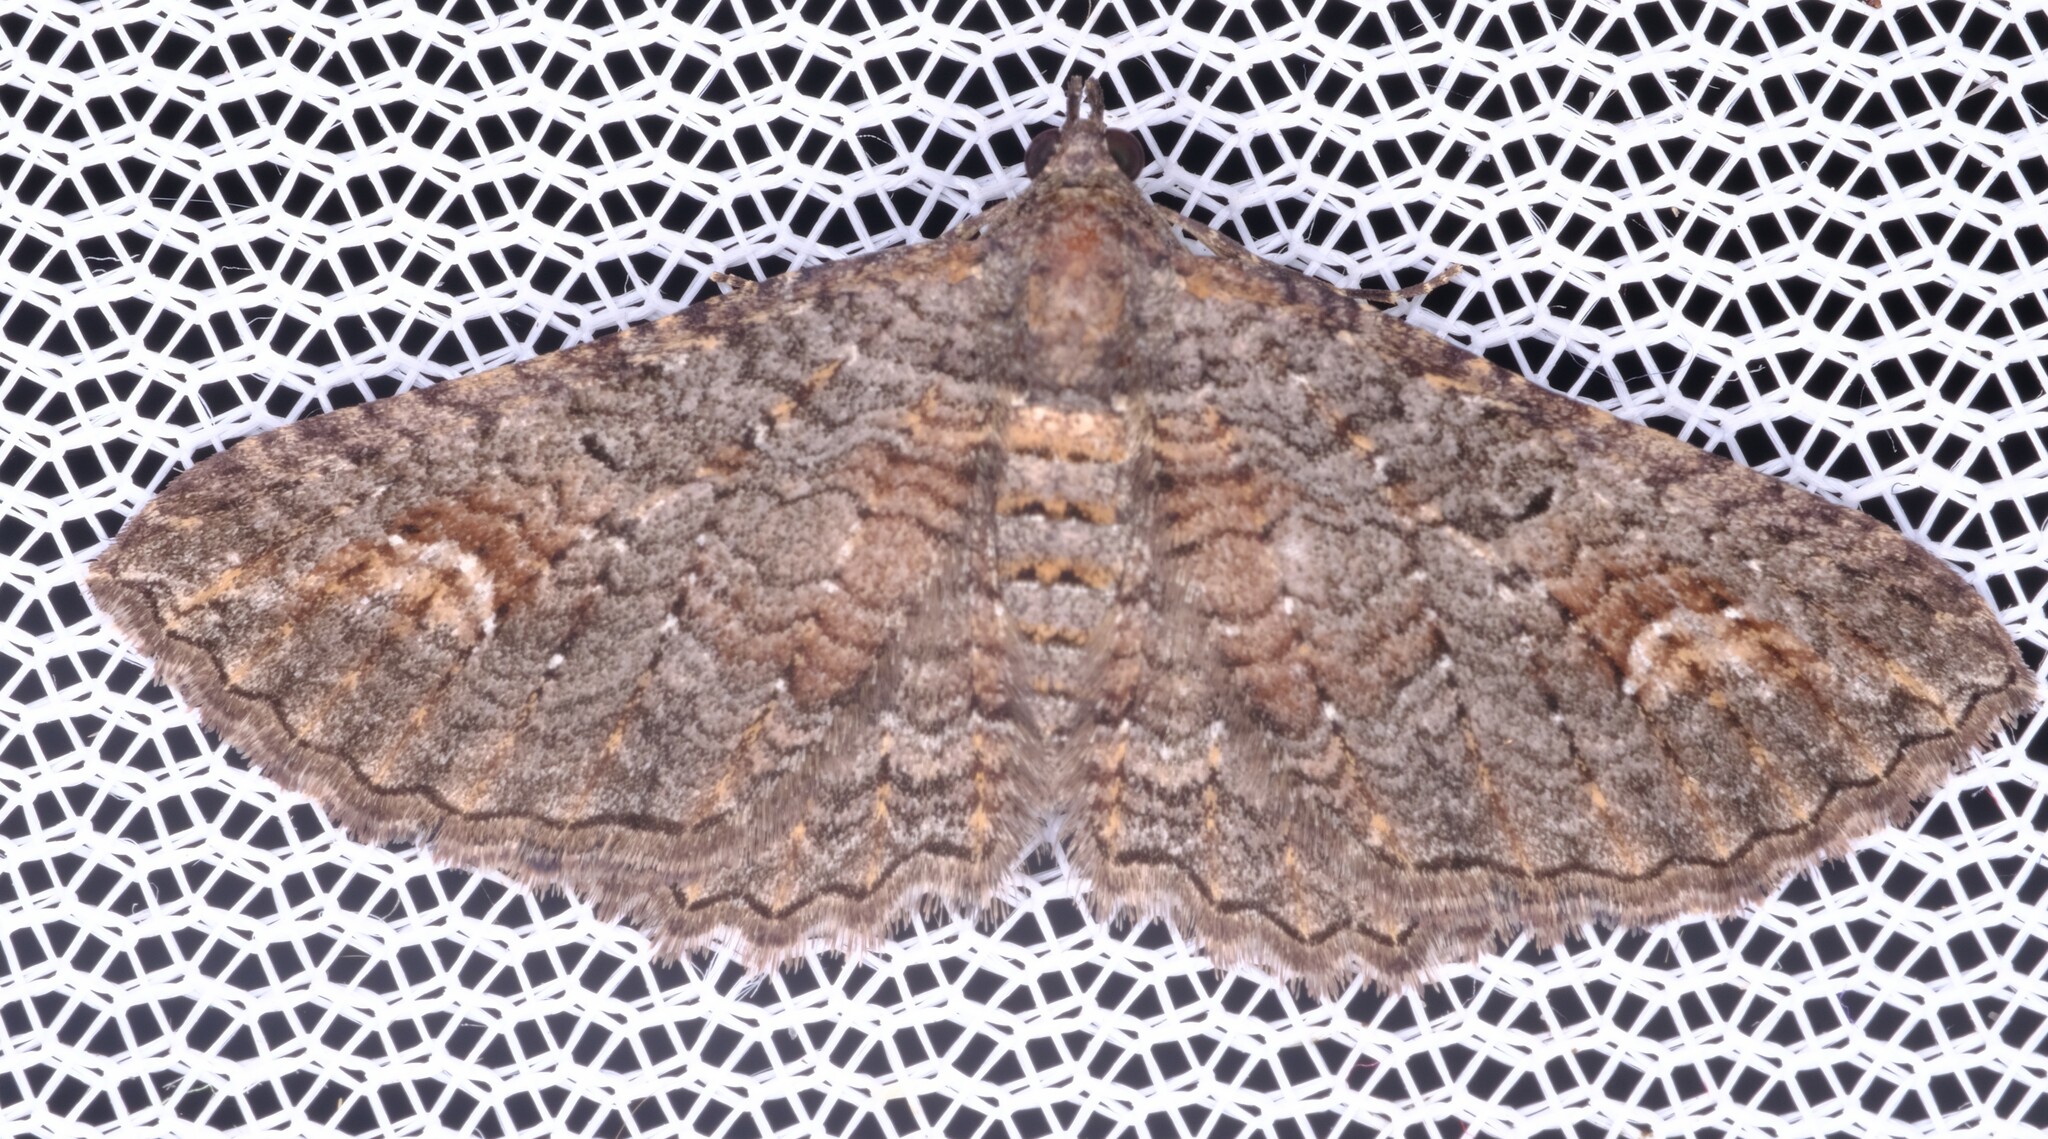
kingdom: Animalia
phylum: Arthropoda
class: Insecta
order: Lepidoptera
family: Geometridae
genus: Eupithecia
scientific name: Eupithecia Eucymatoge scotodes
